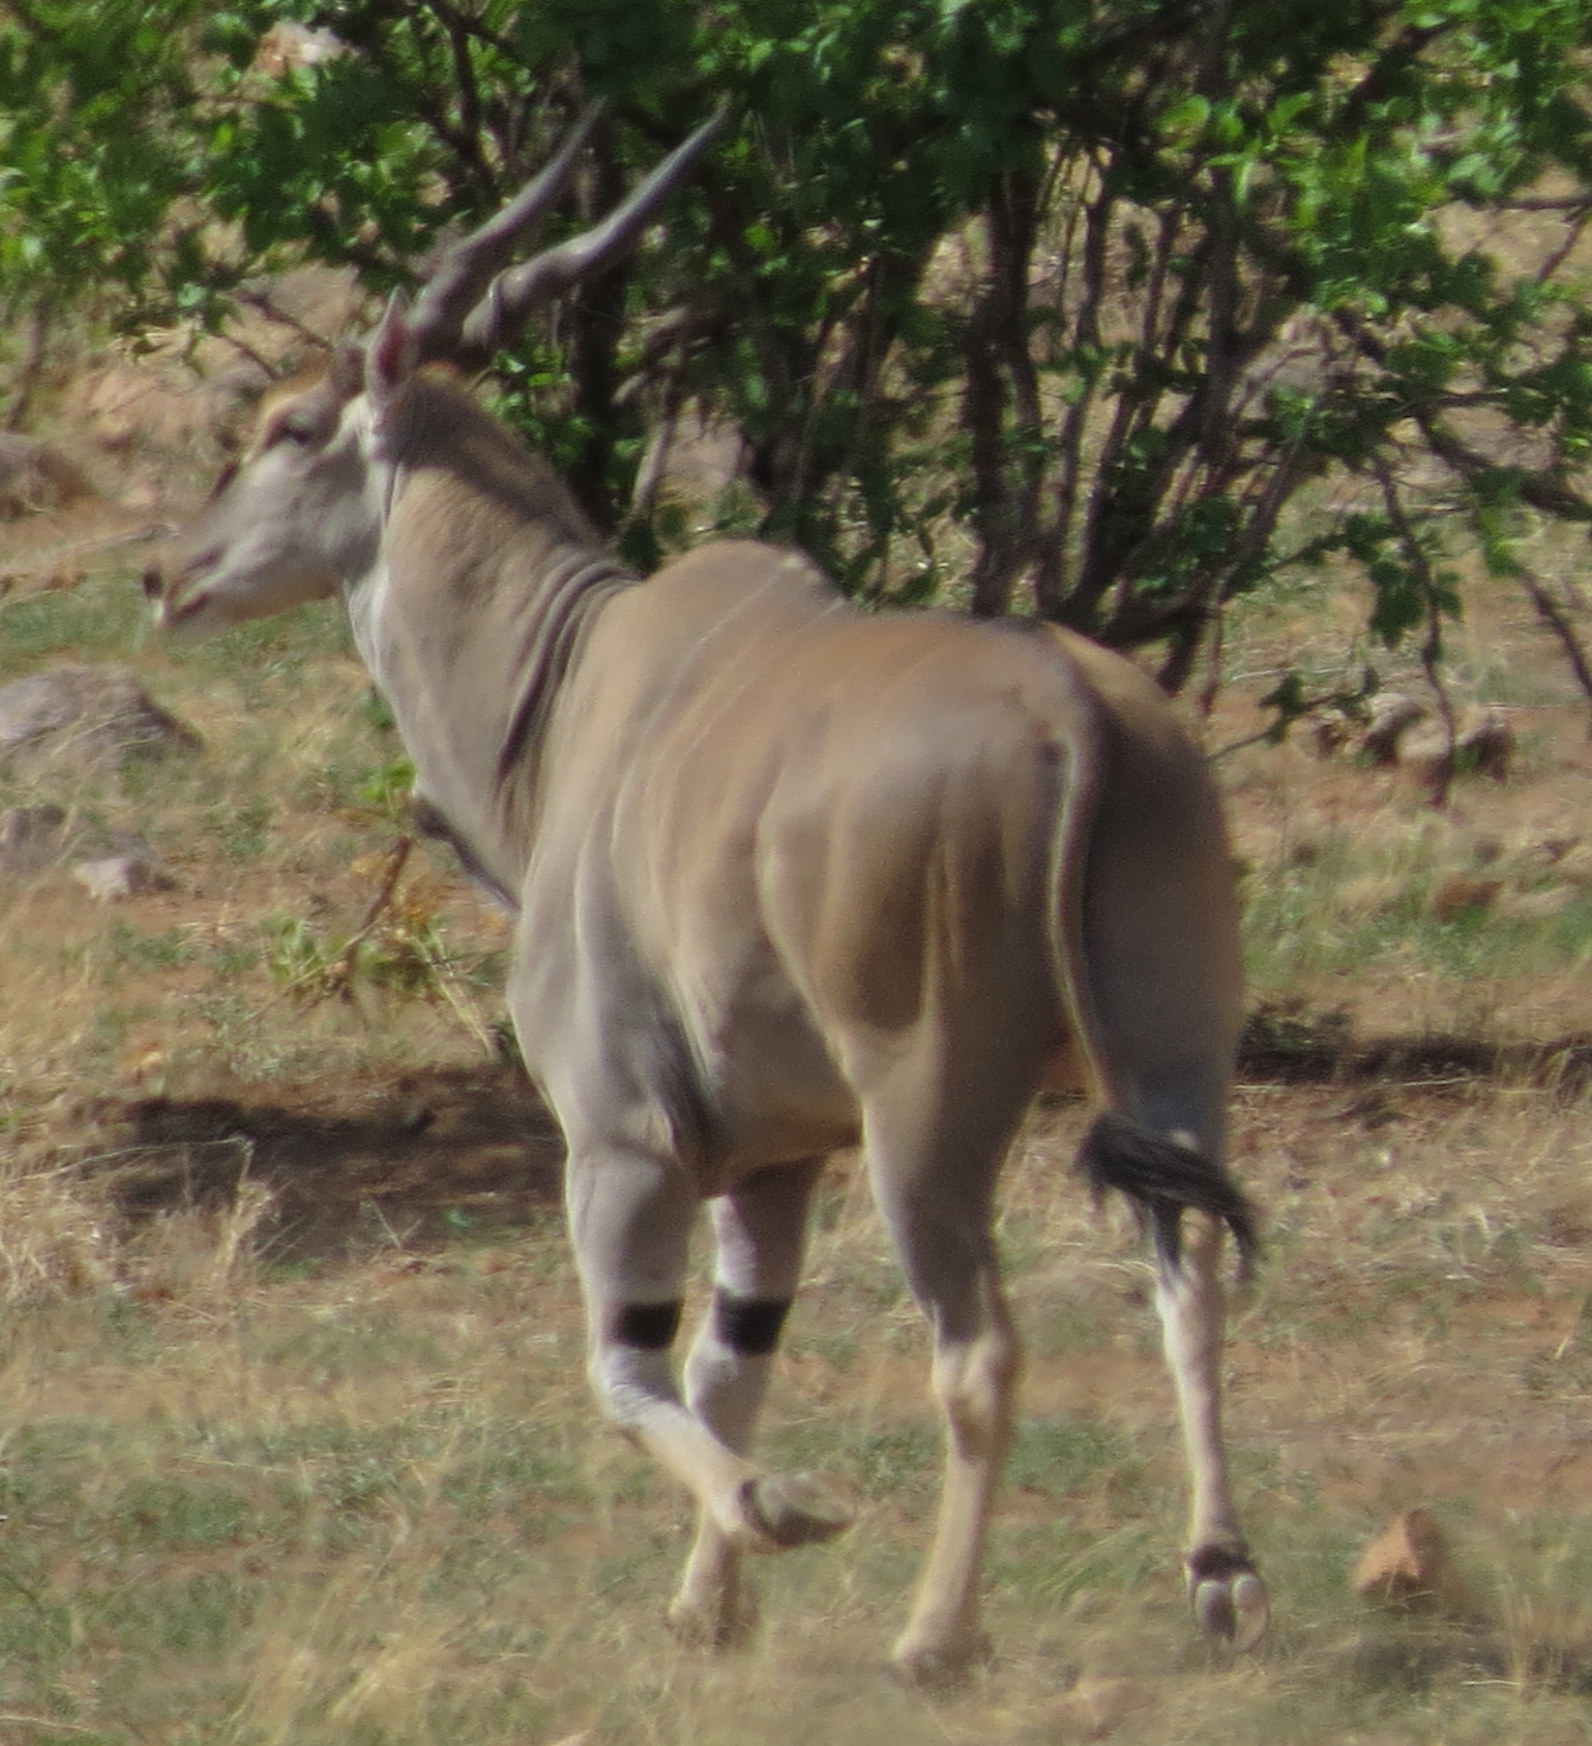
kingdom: Animalia
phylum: Chordata
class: Mammalia
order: Artiodactyla
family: Bovidae
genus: Taurotragus
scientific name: Taurotragus oryx
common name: Common eland
